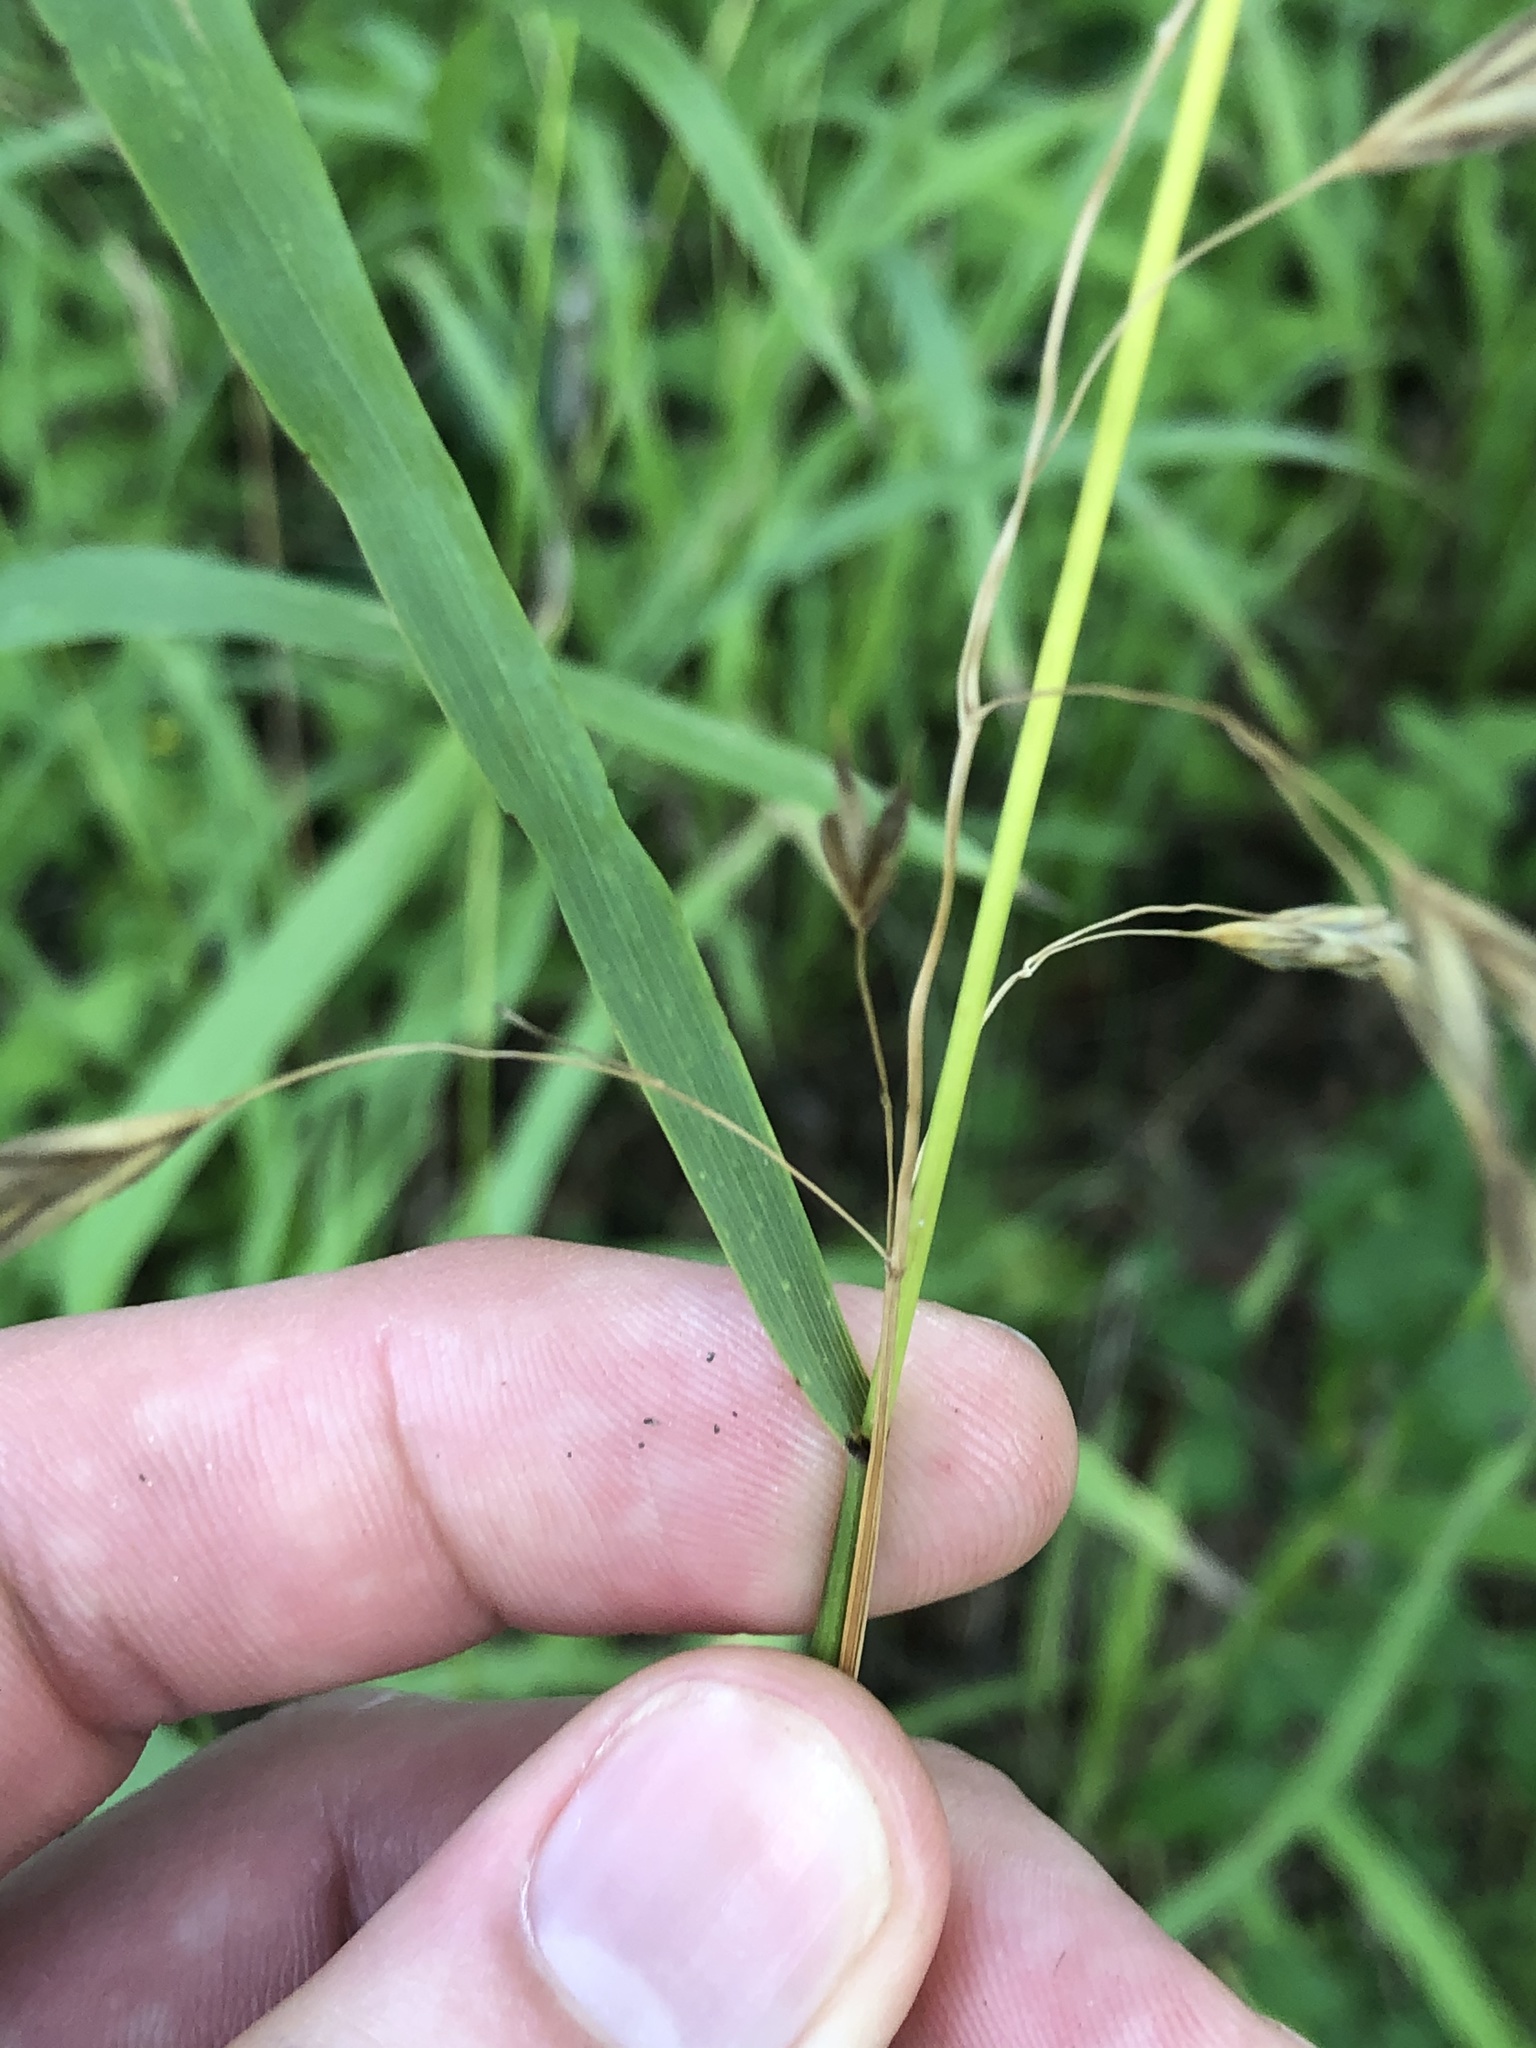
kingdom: Plantae
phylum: Tracheophyta
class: Liliopsida
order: Poales
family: Poaceae
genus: Bromus
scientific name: Bromus pubescens
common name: Hairy wood brome grass
